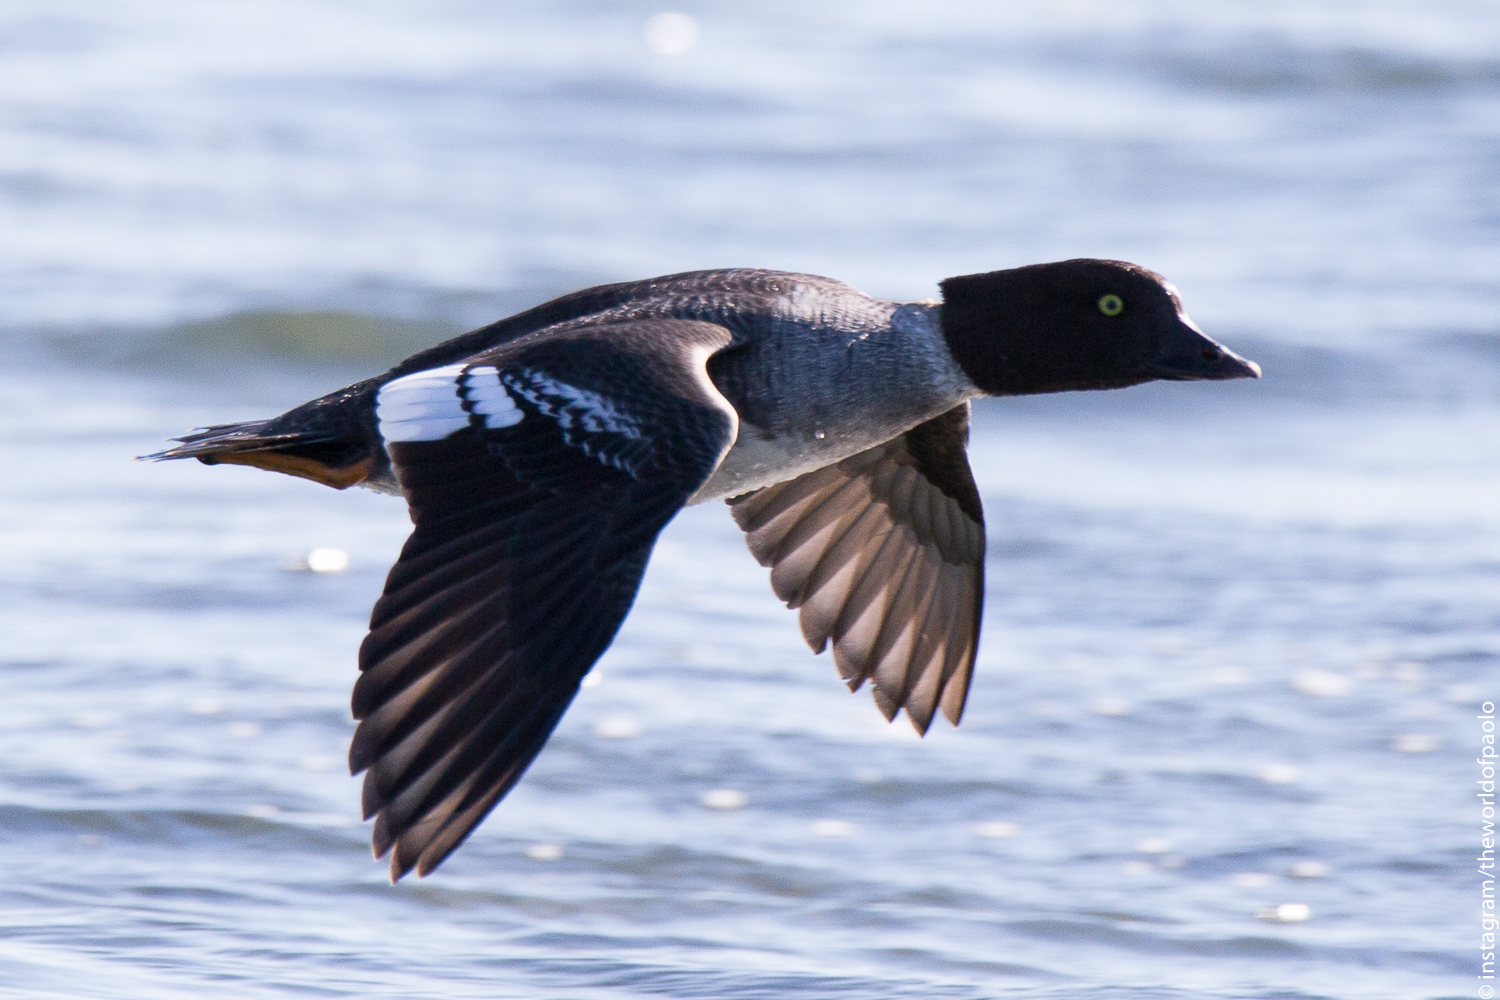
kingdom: Animalia
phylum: Chordata
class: Aves
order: Anseriformes
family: Anatidae
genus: Bucephala
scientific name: Bucephala islandica
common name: Barrow's goldeneye
